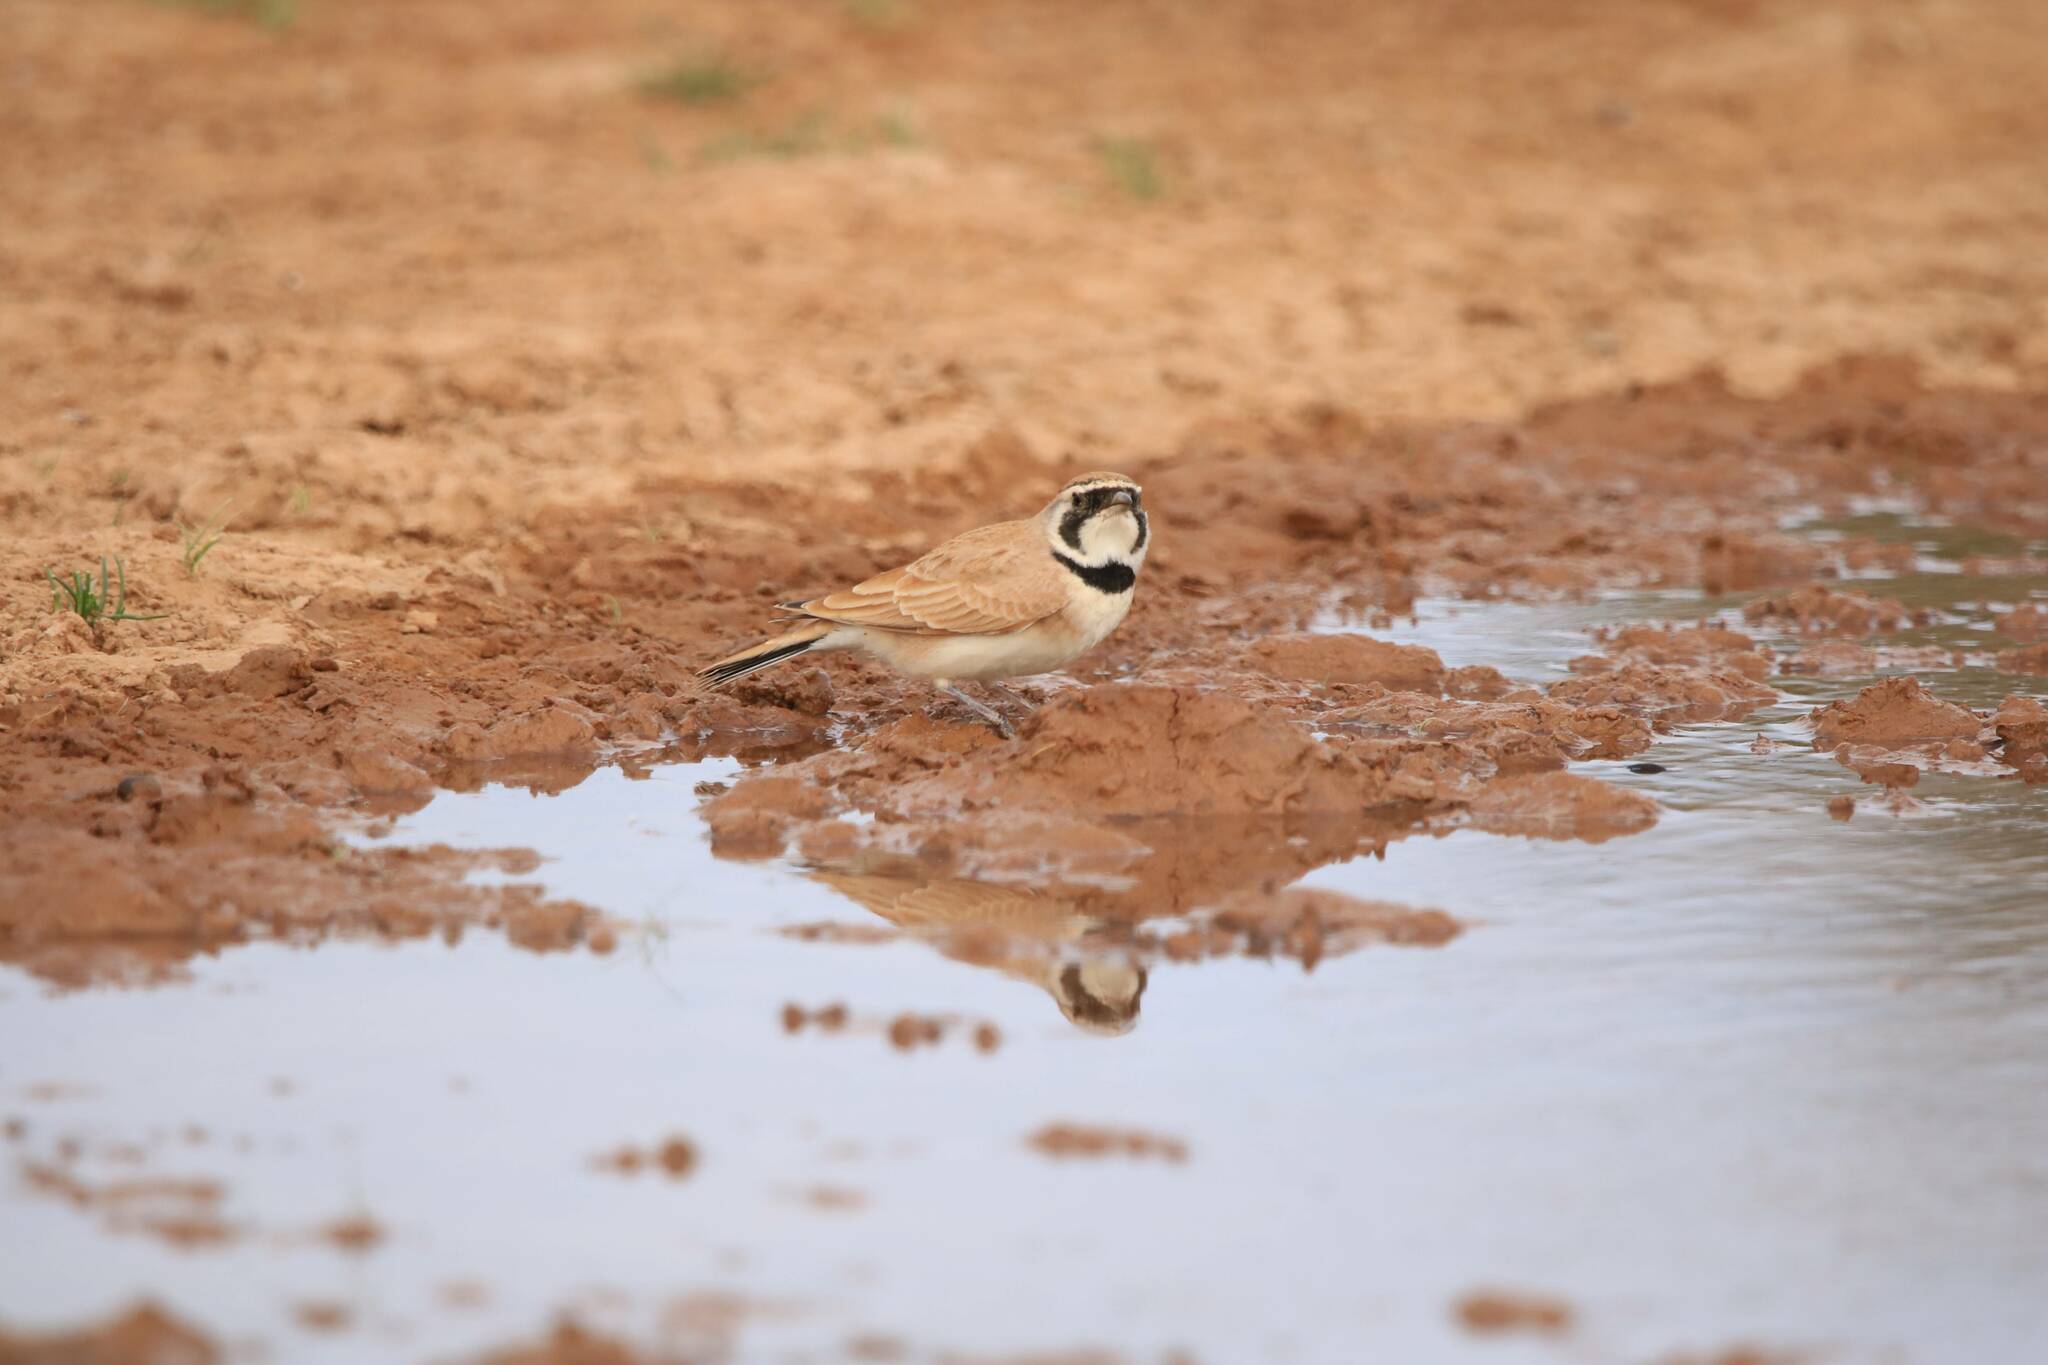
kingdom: Animalia
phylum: Chordata
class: Aves
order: Passeriformes
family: Alaudidae
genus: Eremophila
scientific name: Eremophila bilopha
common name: Temminck's lark
